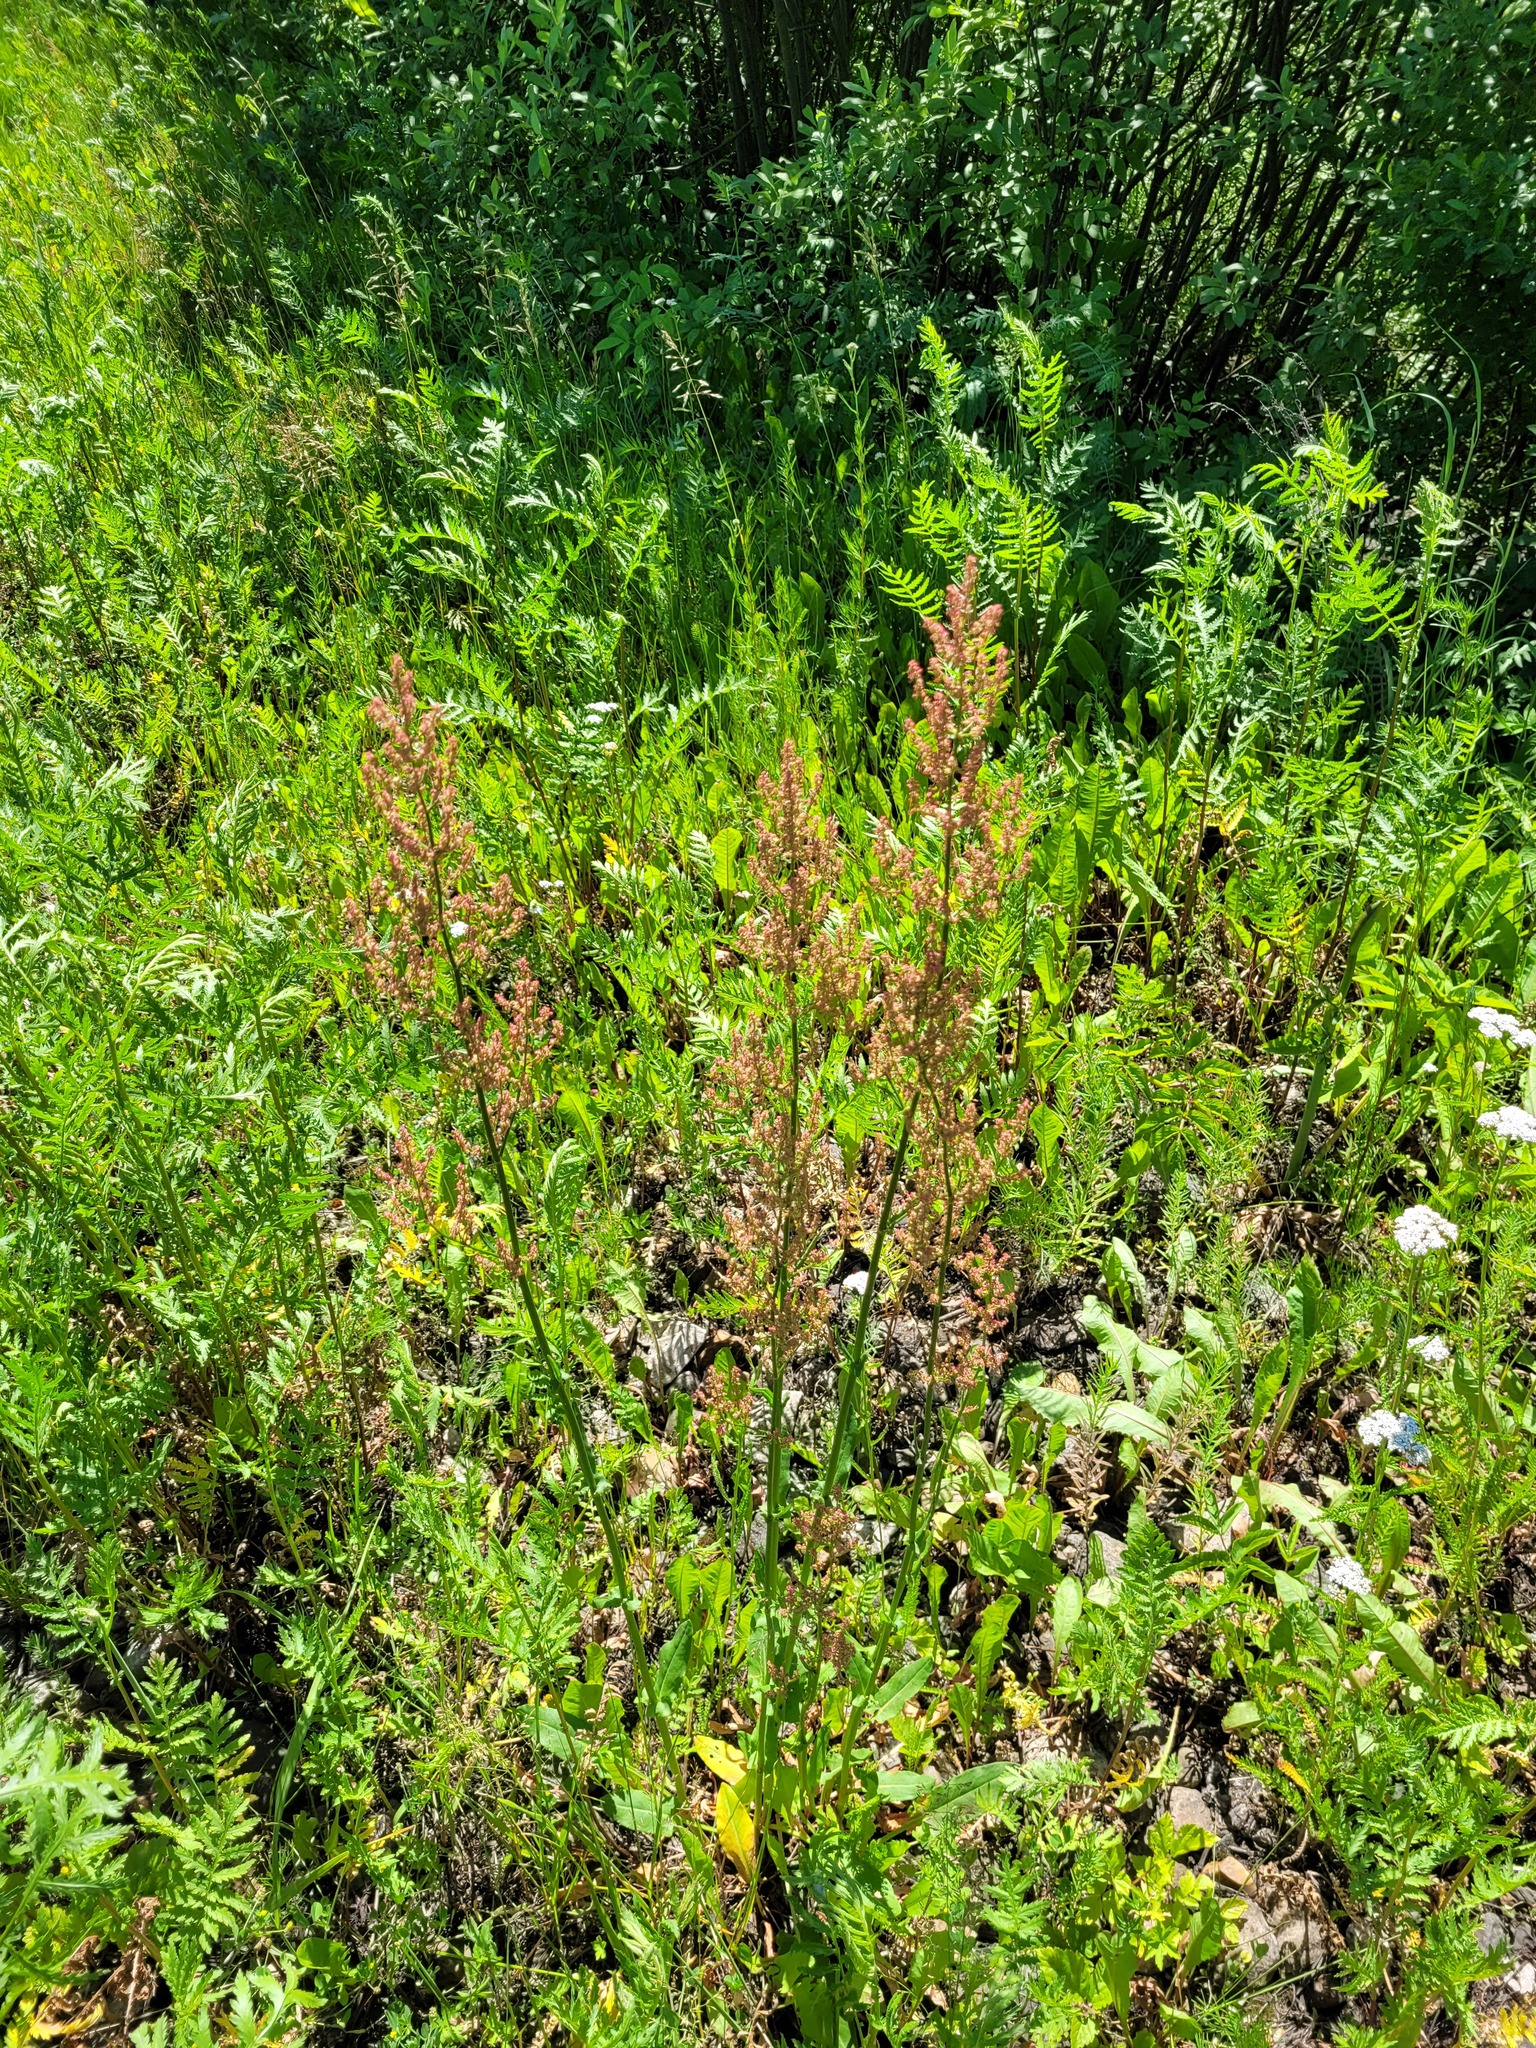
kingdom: Plantae
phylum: Tracheophyta
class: Magnoliopsida
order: Caryophyllales
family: Polygonaceae
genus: Rumex
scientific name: Rumex thyrsiflorus
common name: Garden sorrel
